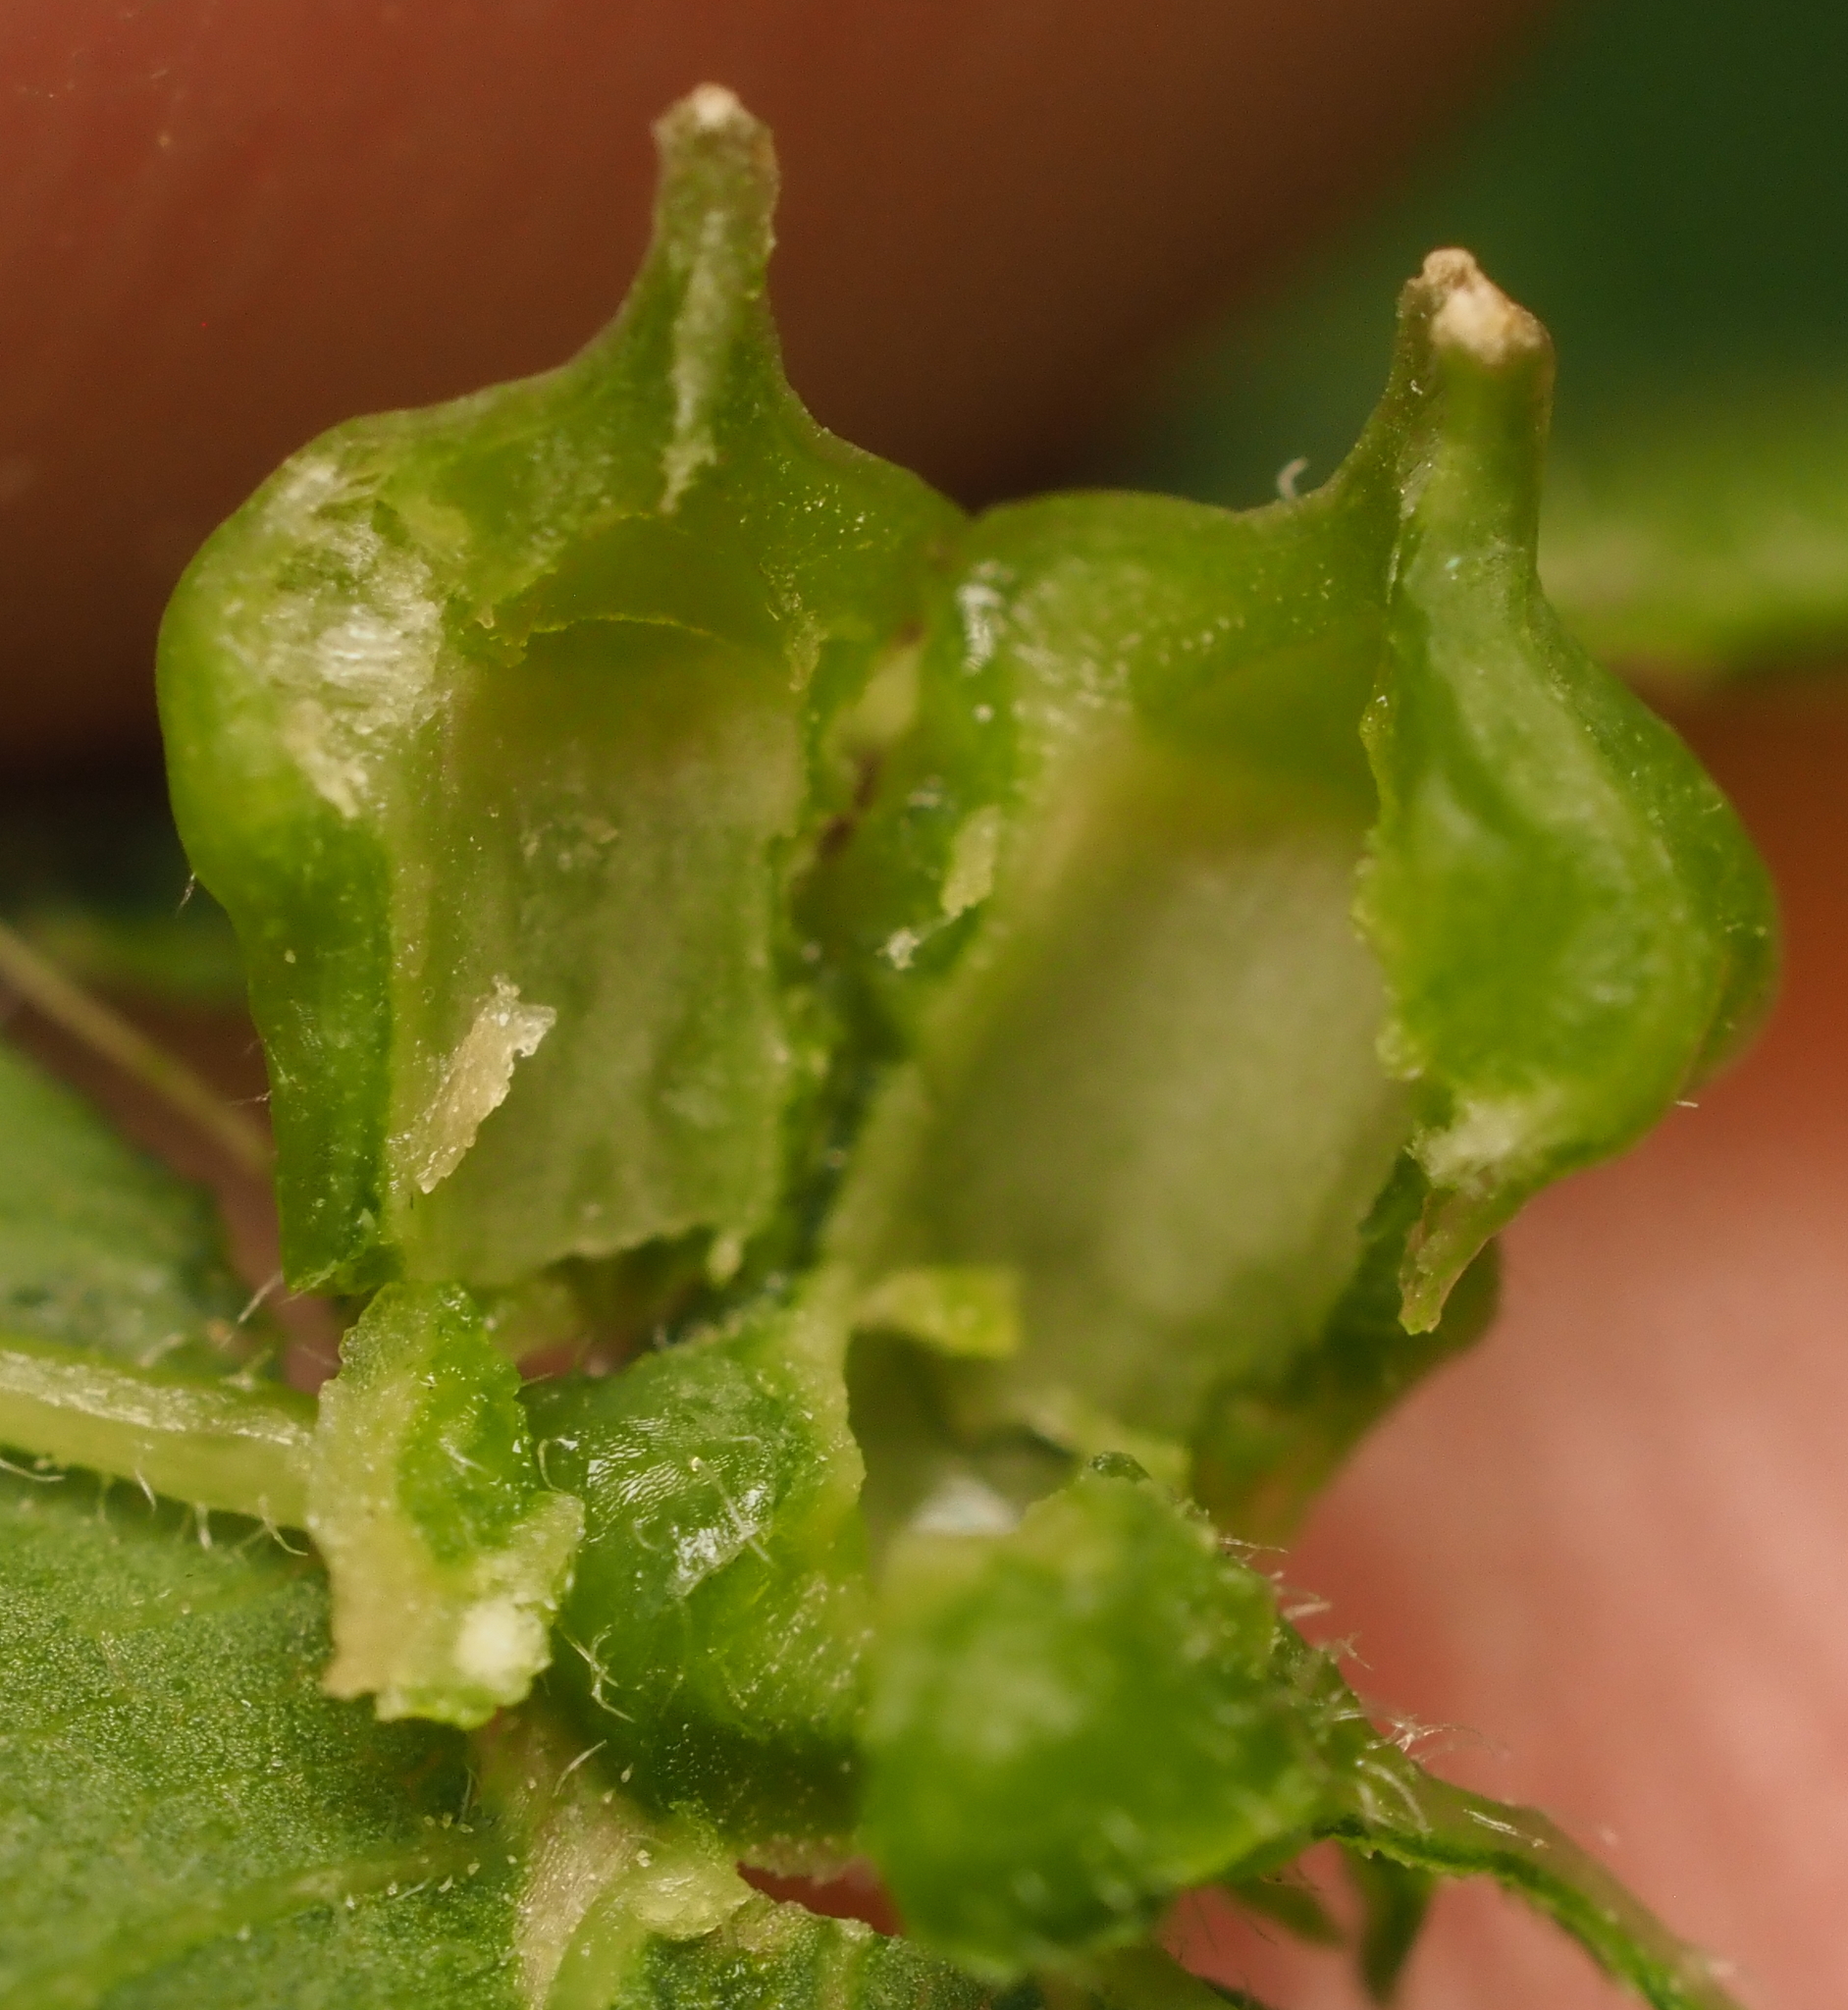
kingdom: Animalia
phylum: Arthropoda
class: Insecta
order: Diptera
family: Cecidomyiidae
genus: Celticecis
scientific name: Celticecis ramicola
